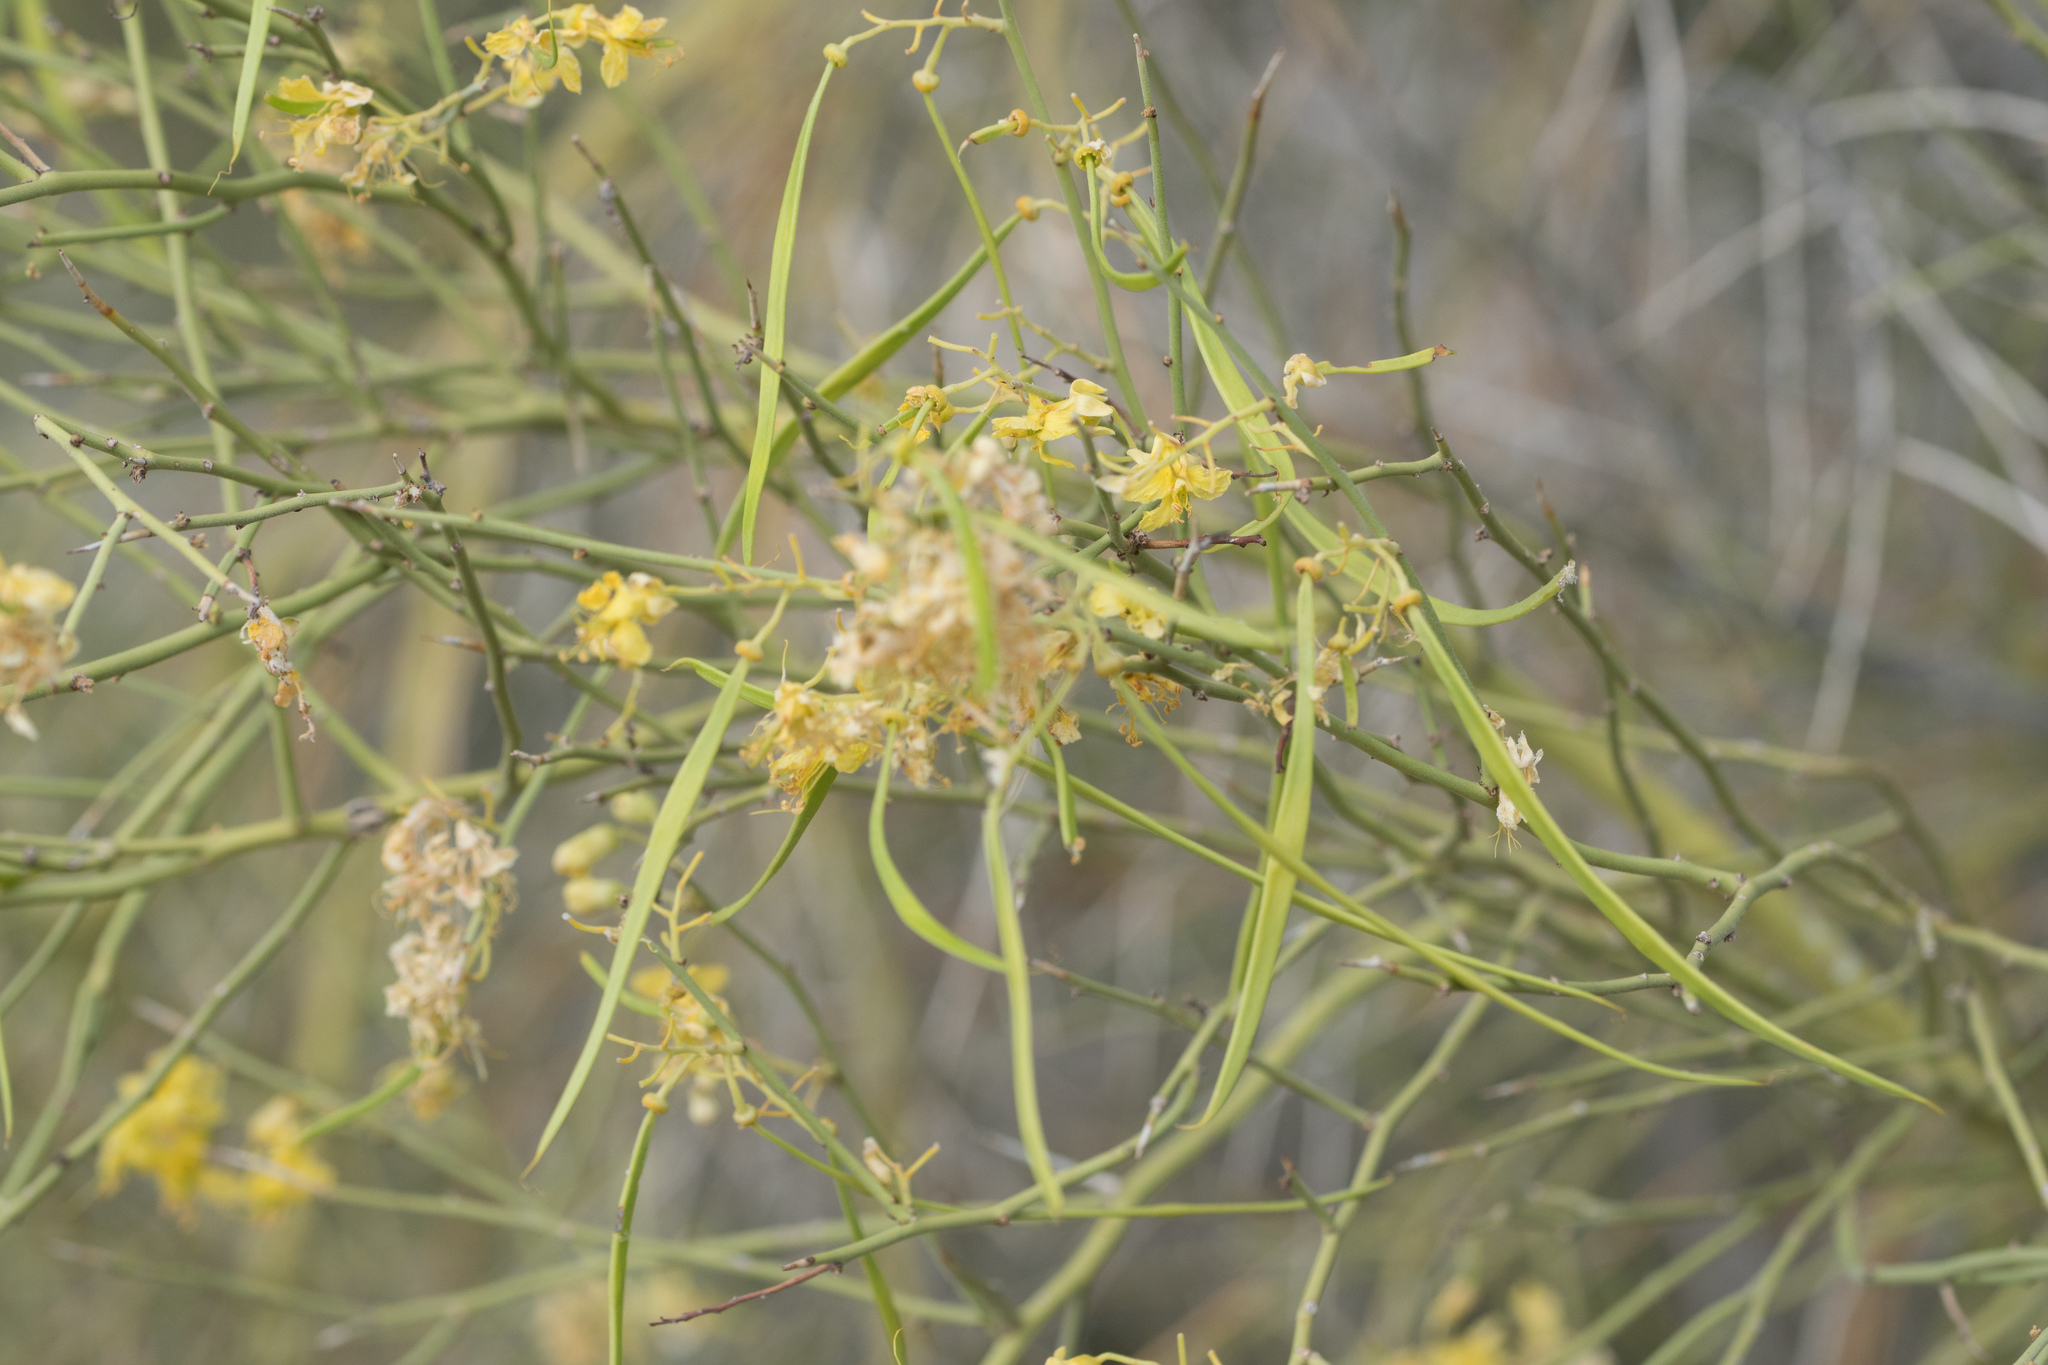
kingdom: Plantae
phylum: Tracheophyta
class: Magnoliopsida
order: Fabales
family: Fabaceae
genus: Parkinsonia
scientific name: Parkinsonia microphylla
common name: Yellow paloverde
